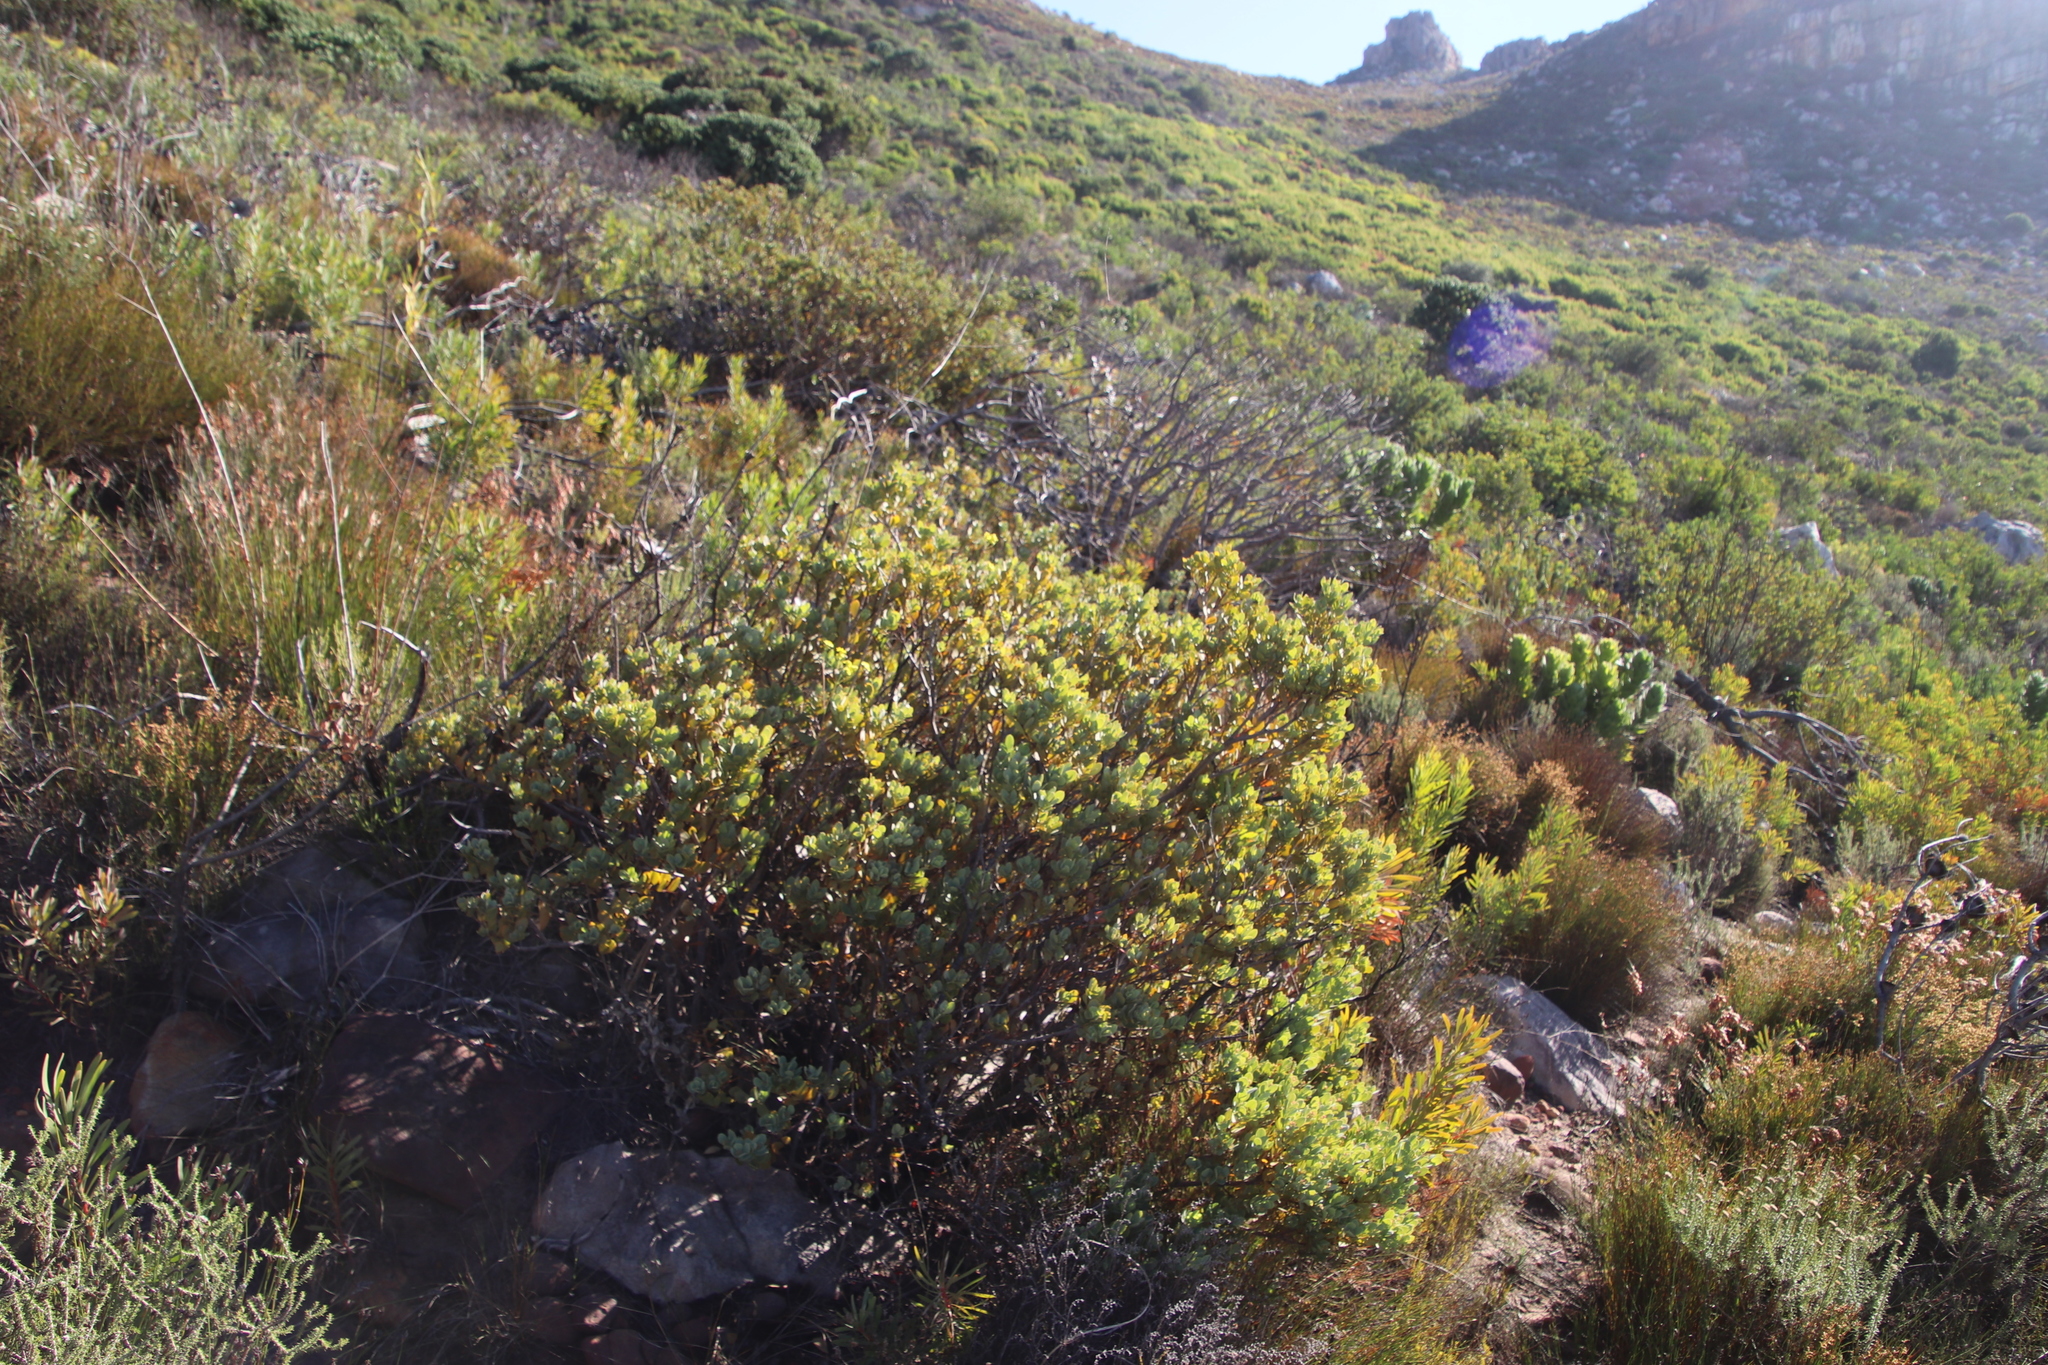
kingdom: Plantae
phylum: Tracheophyta
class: Magnoliopsida
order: Santalales
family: Santalaceae
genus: Osyris
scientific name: Osyris compressa
